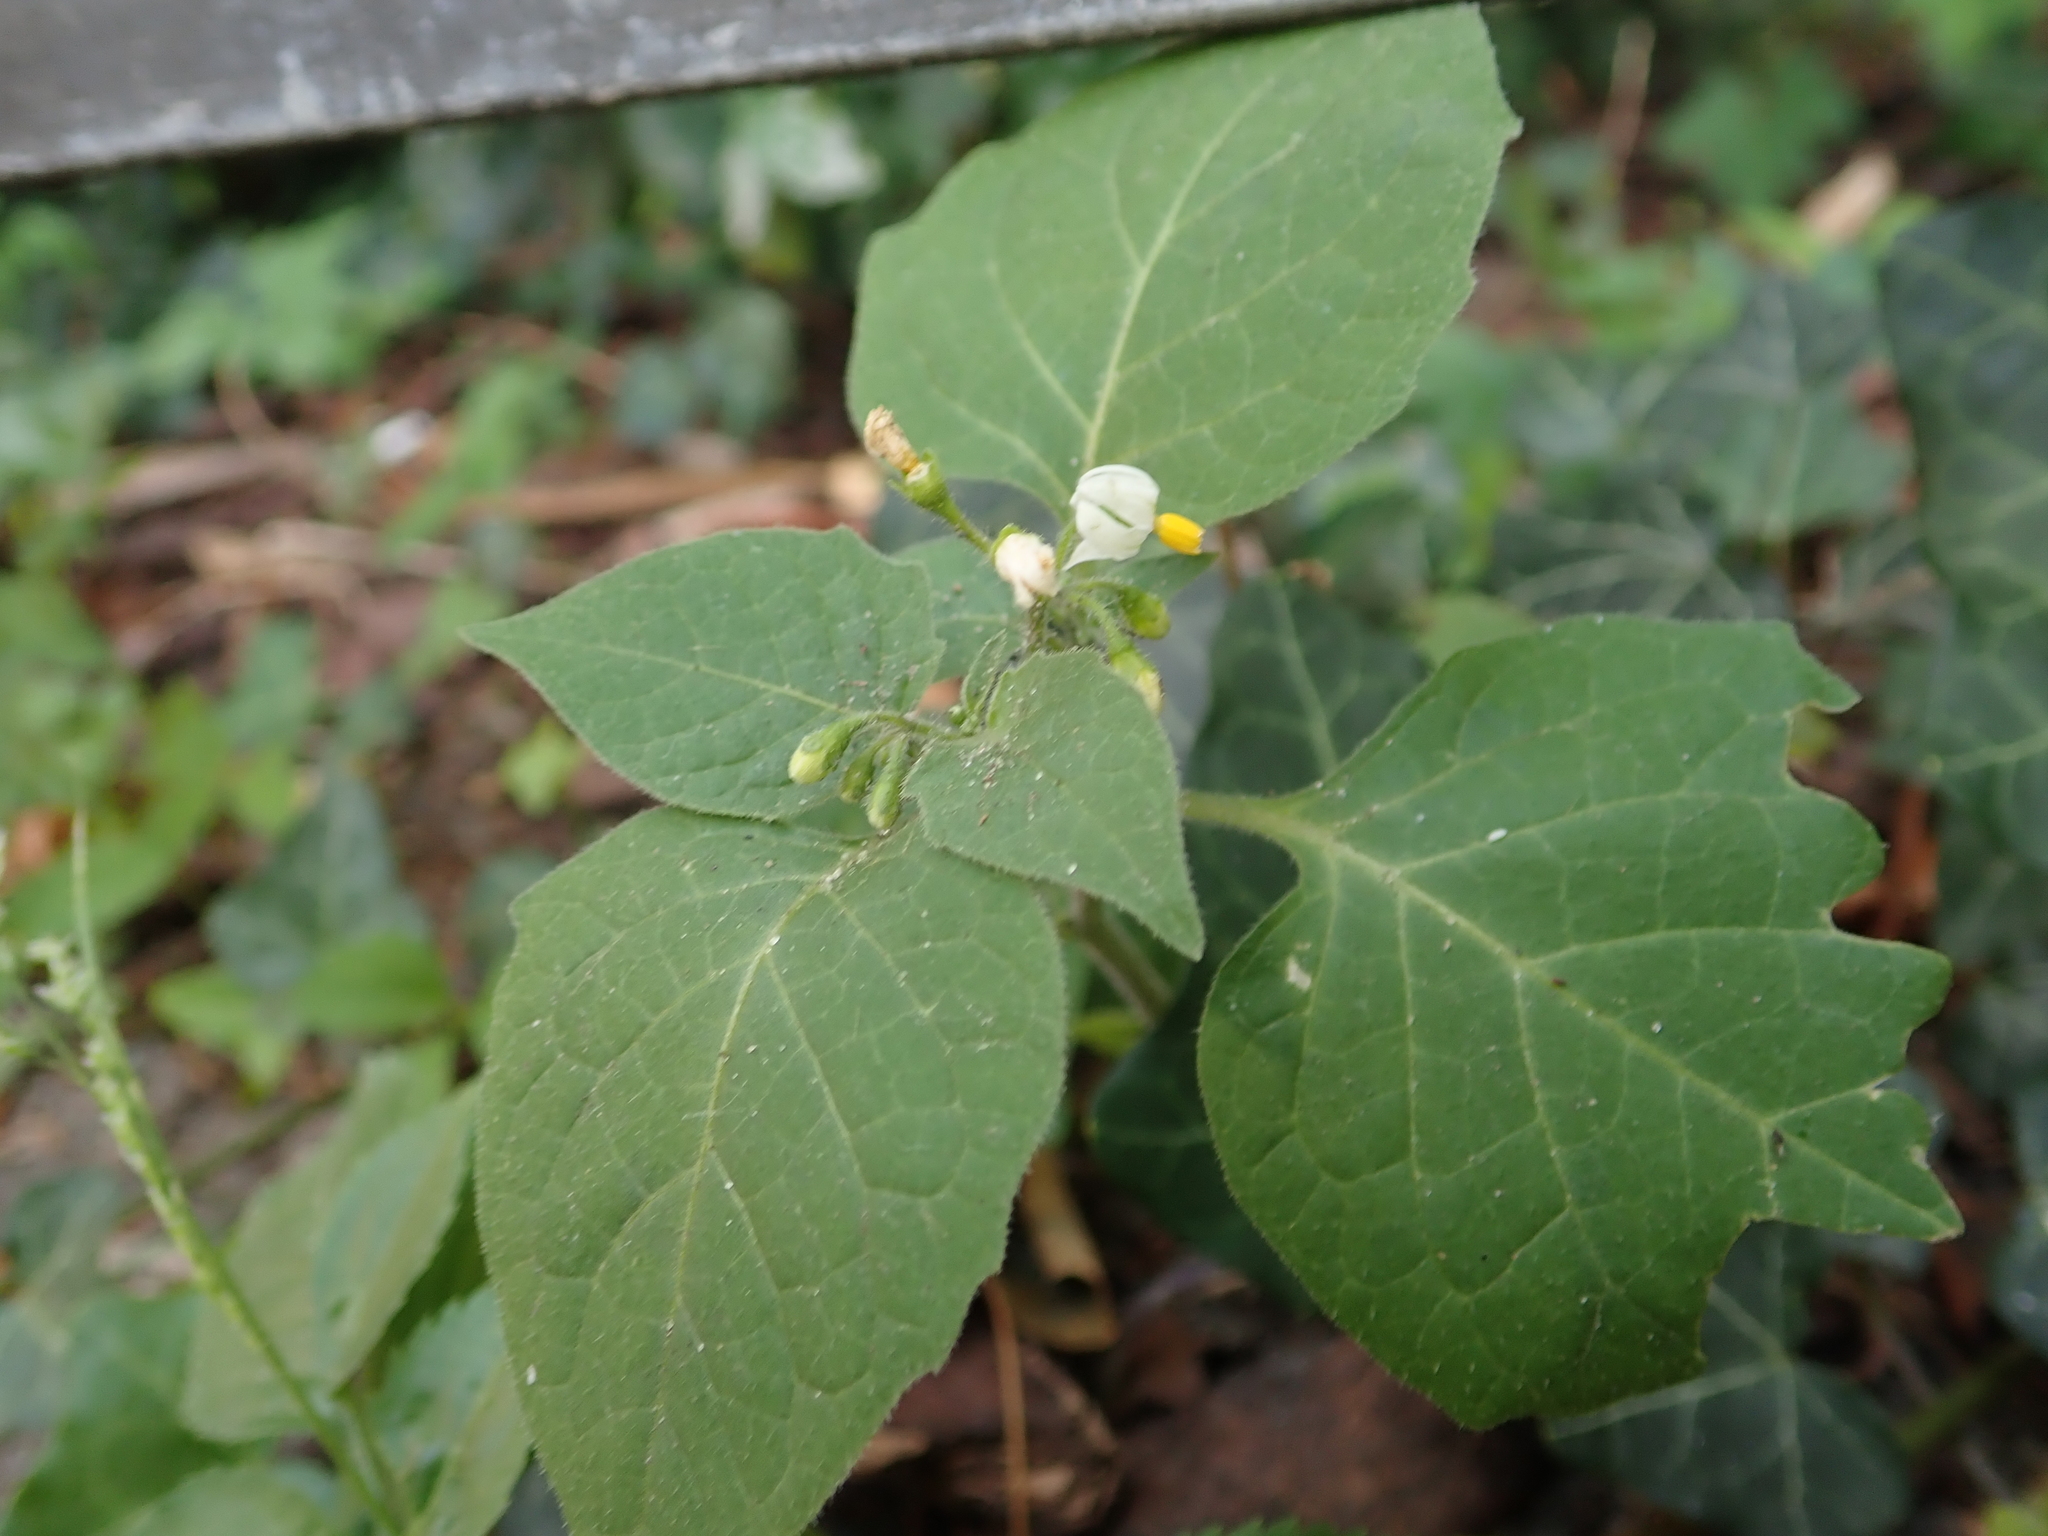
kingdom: Plantae
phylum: Tracheophyta
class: Magnoliopsida
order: Solanales
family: Solanaceae
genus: Solanum
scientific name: Solanum nigrum
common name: Black nightshade
